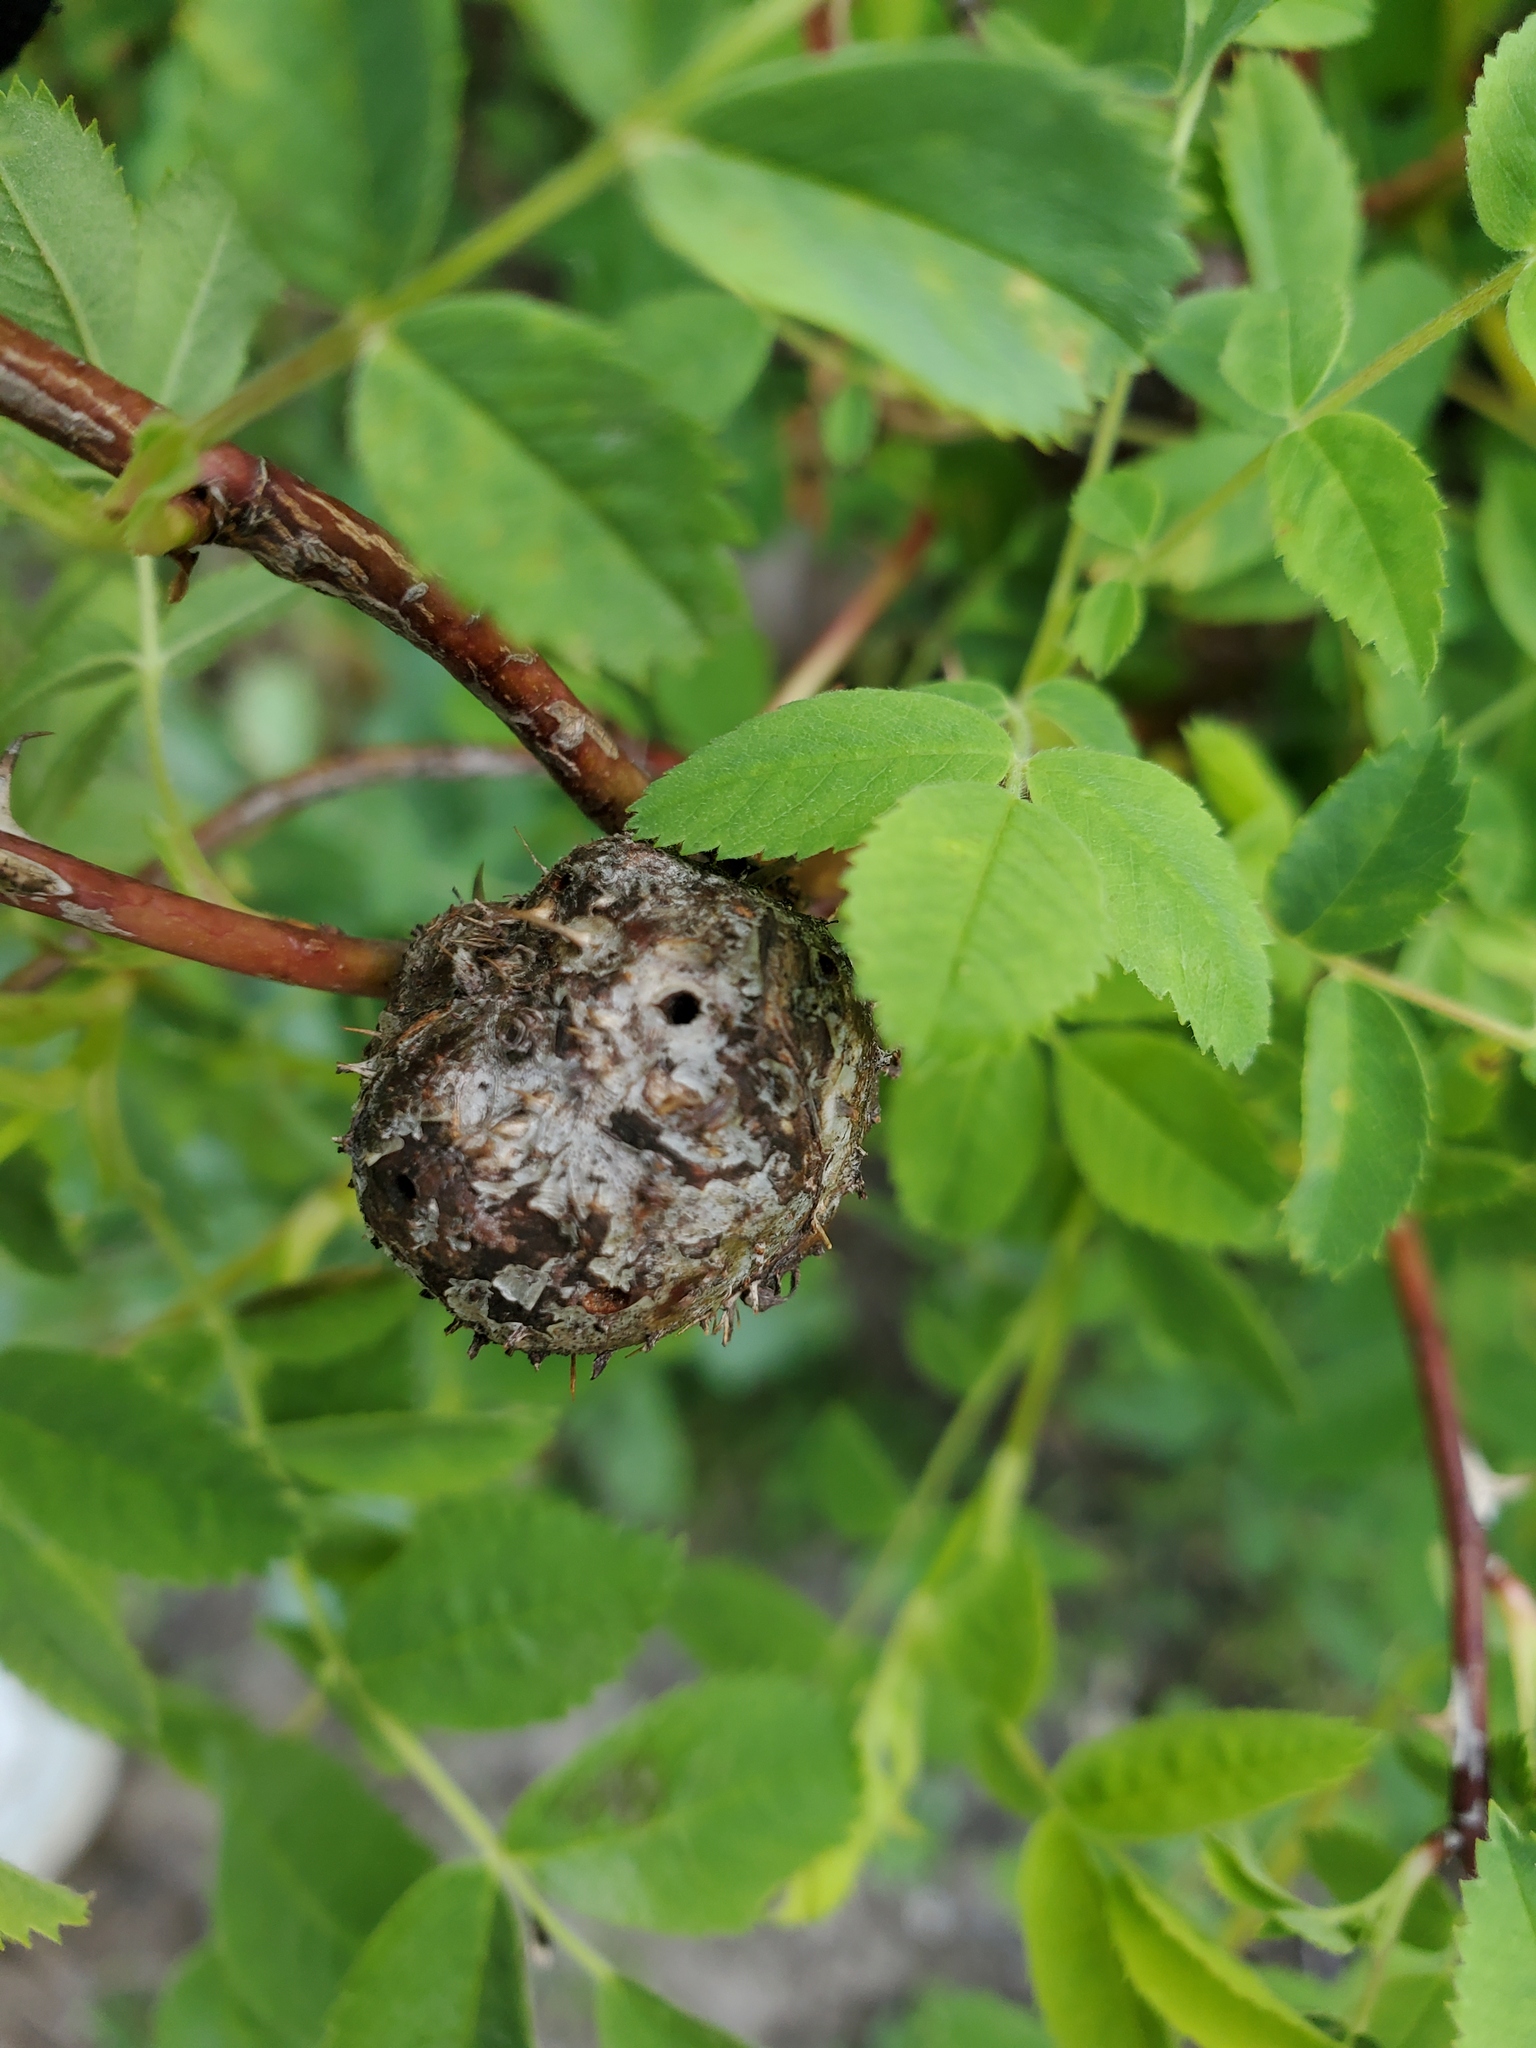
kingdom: Animalia
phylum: Arthropoda
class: Insecta
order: Hymenoptera
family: Cynipidae
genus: Diplolepis
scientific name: Diplolepis californica
